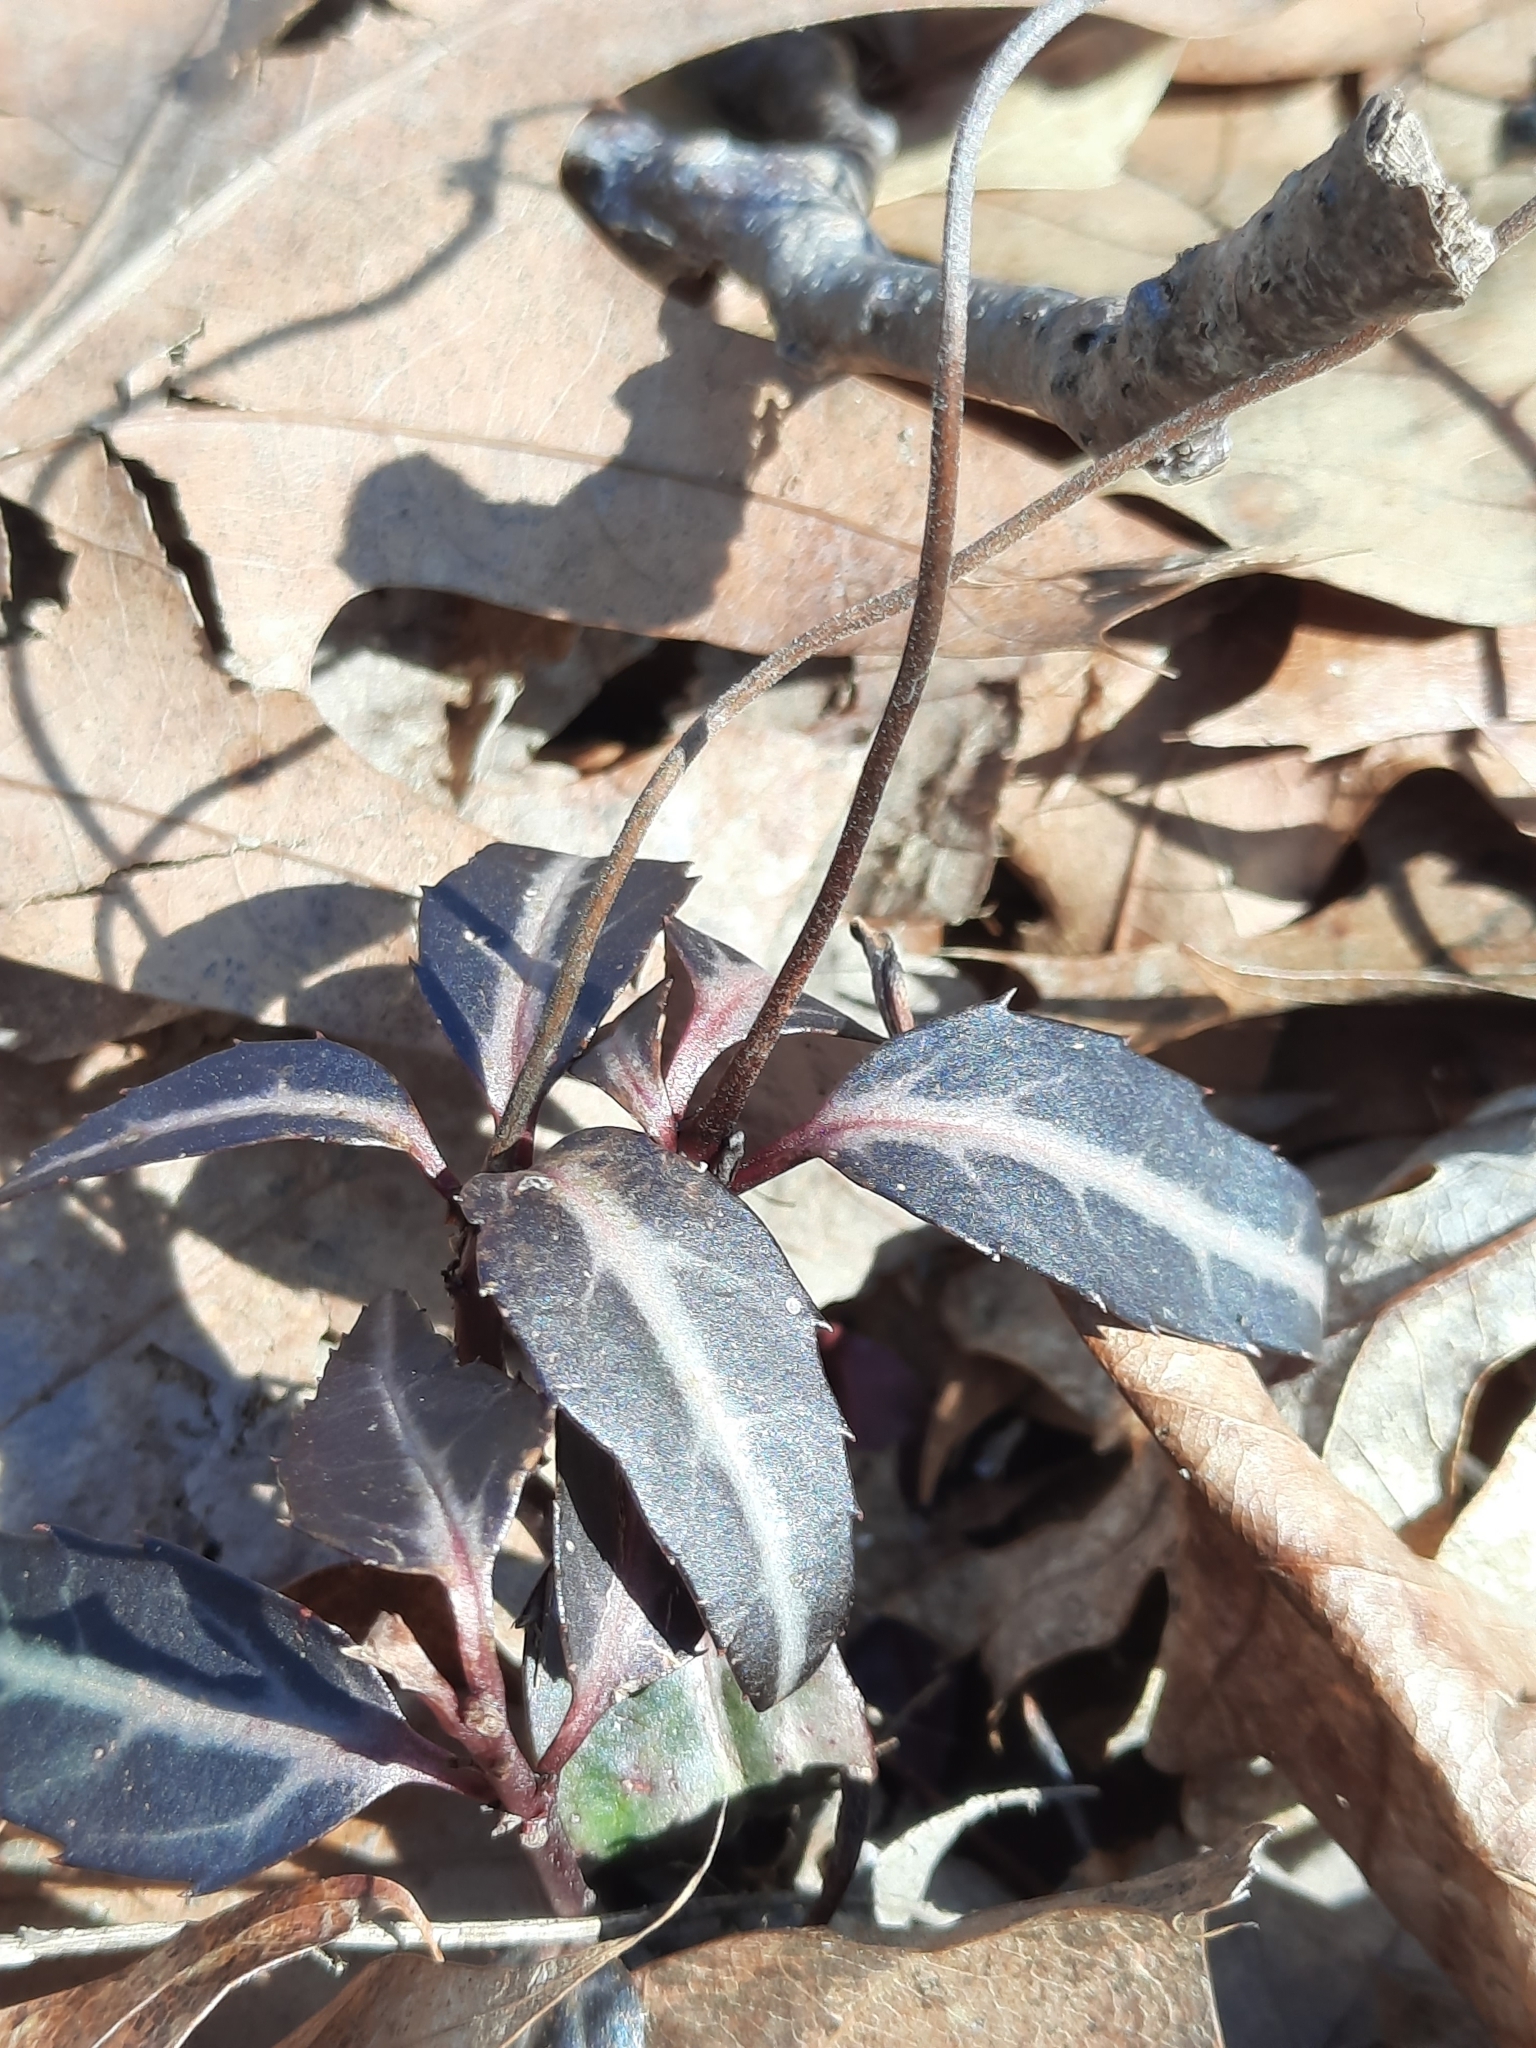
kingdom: Plantae
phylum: Tracheophyta
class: Magnoliopsida
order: Ericales
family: Ericaceae
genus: Chimaphila
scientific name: Chimaphila maculata
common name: Spotted pipsissewa
